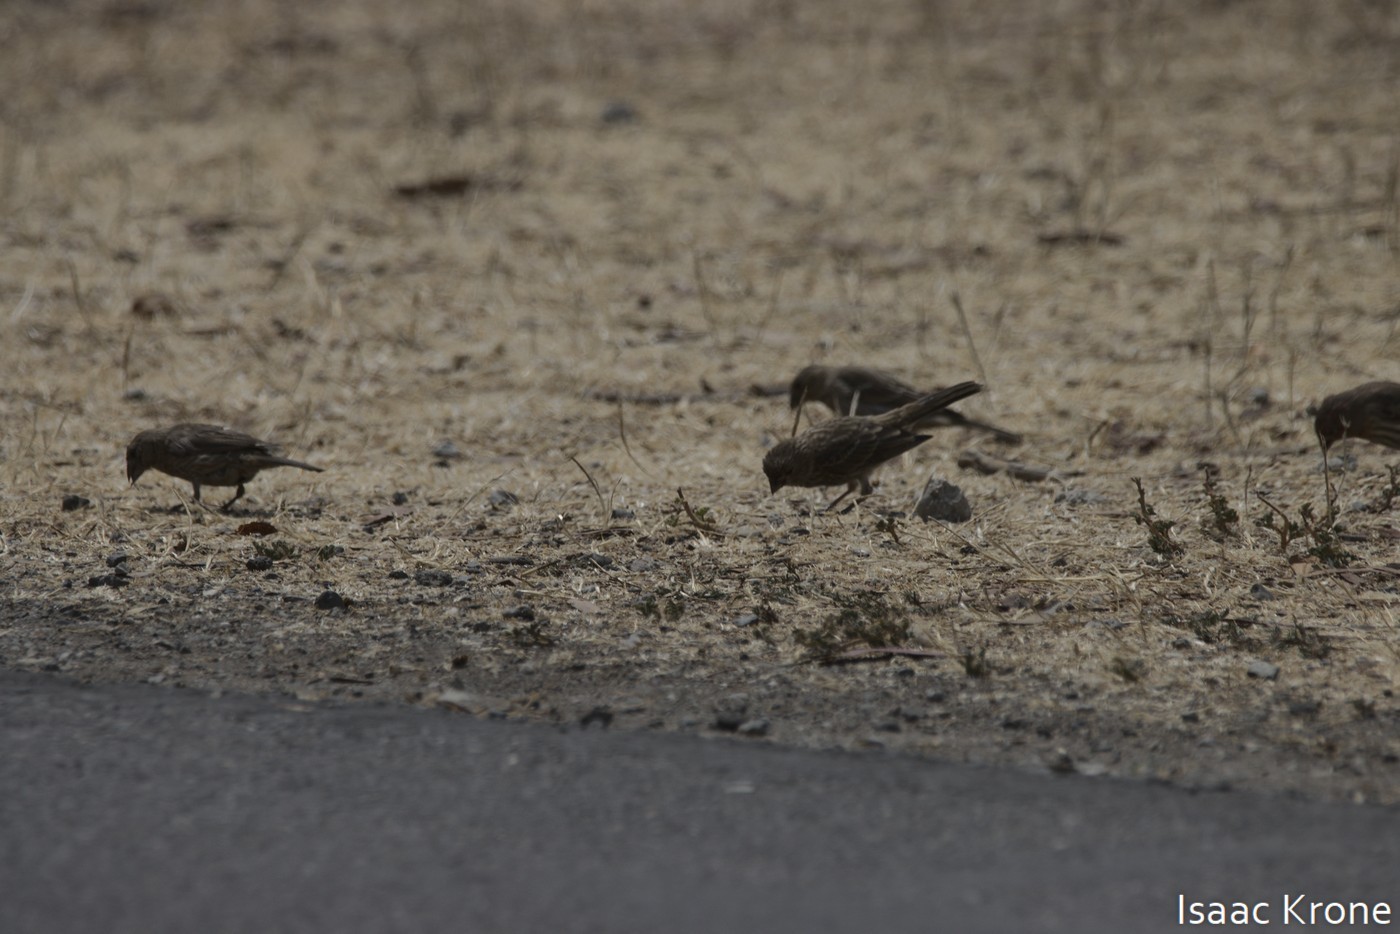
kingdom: Animalia
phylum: Chordata
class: Aves
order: Passeriformes
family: Fringillidae
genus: Haemorhous
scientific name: Haemorhous mexicanus
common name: House finch
